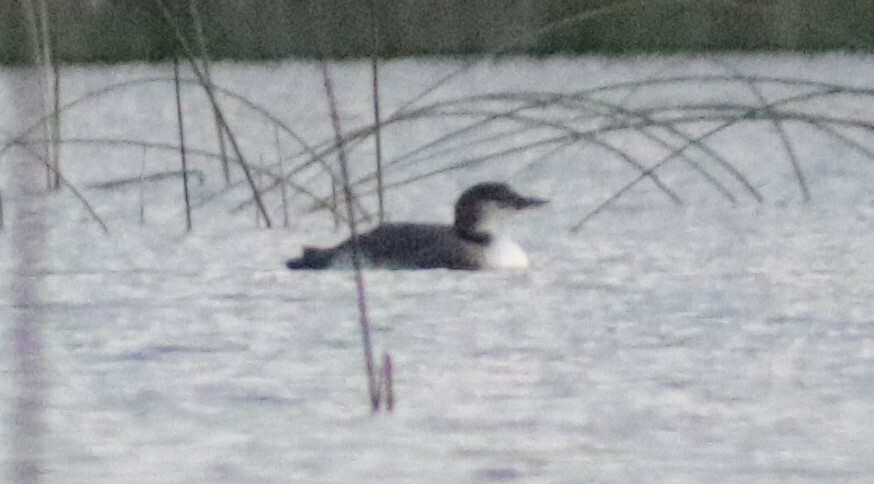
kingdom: Animalia
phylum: Chordata
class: Aves
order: Gaviiformes
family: Gaviidae
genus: Gavia
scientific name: Gavia immer
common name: Common loon
